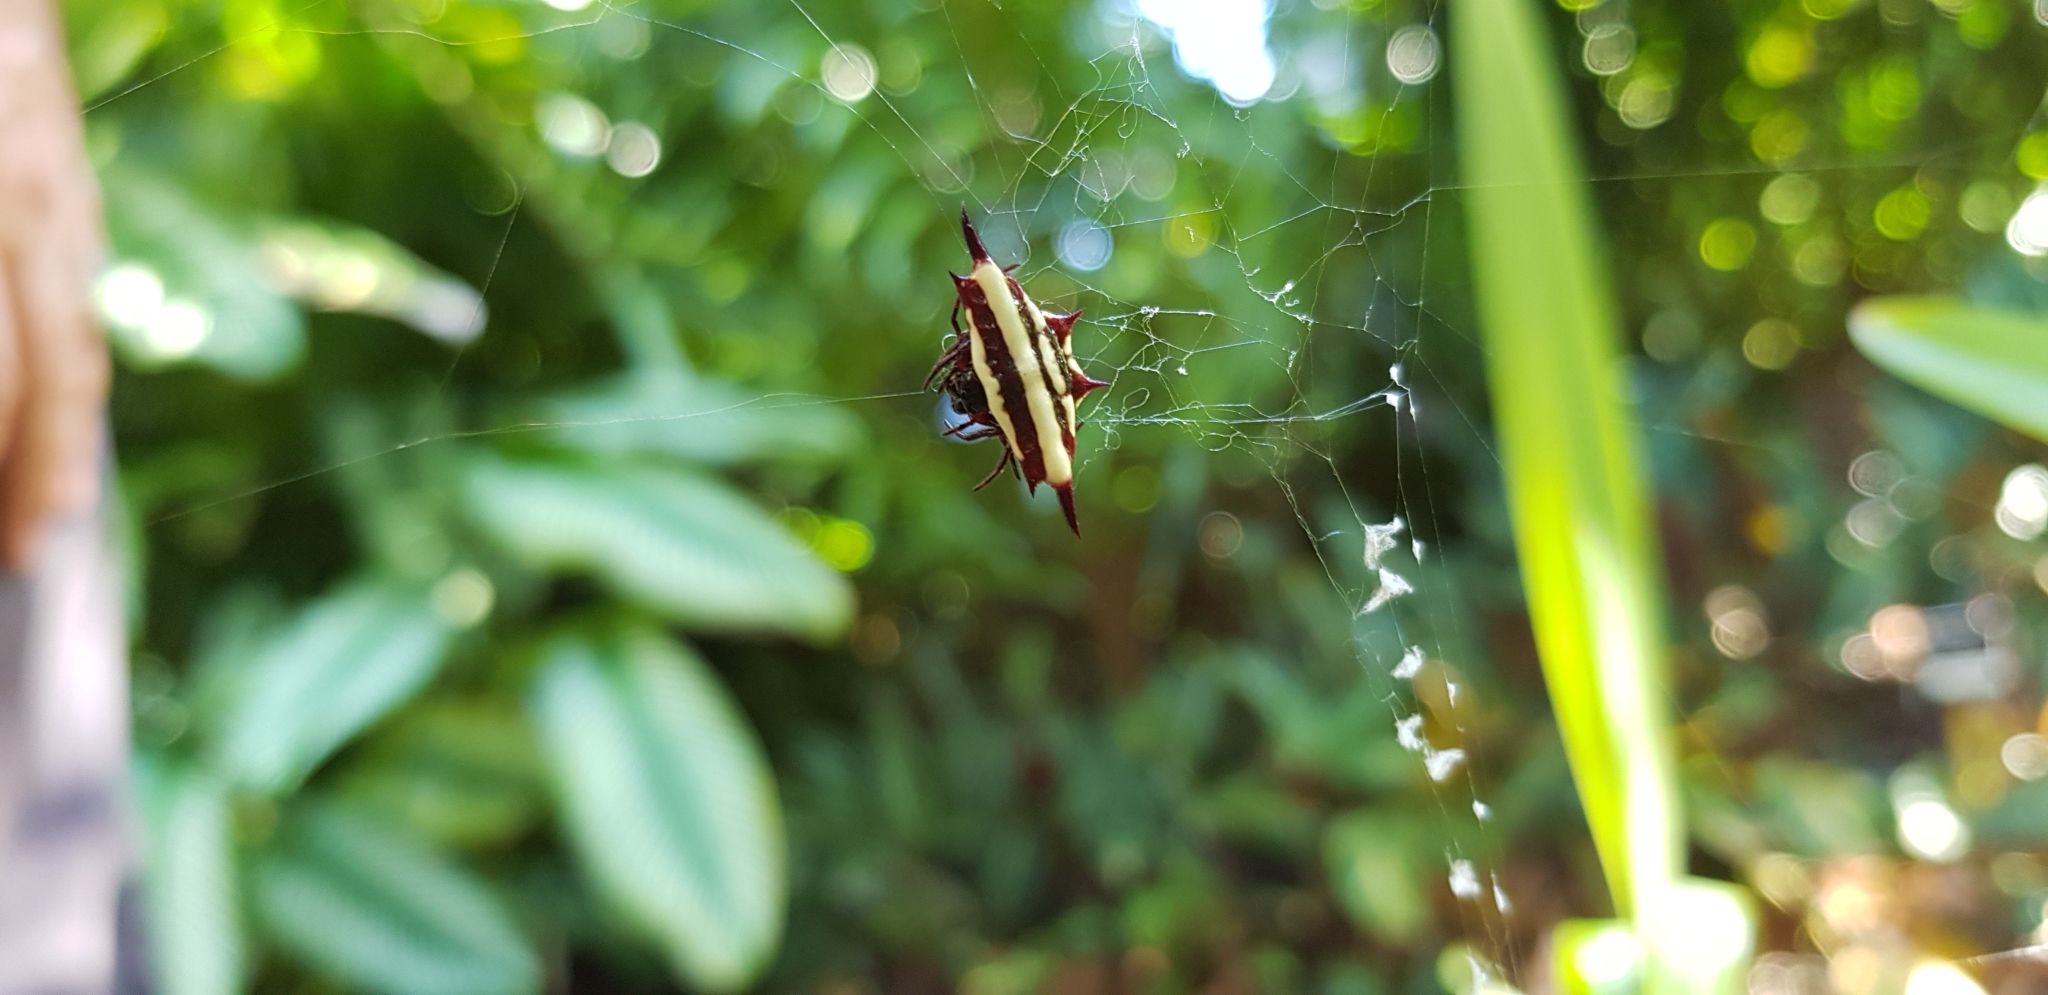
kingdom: Animalia
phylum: Arthropoda
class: Arachnida
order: Araneae
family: Araneidae
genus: Gasteracantha
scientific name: Gasteracantha fornicata
